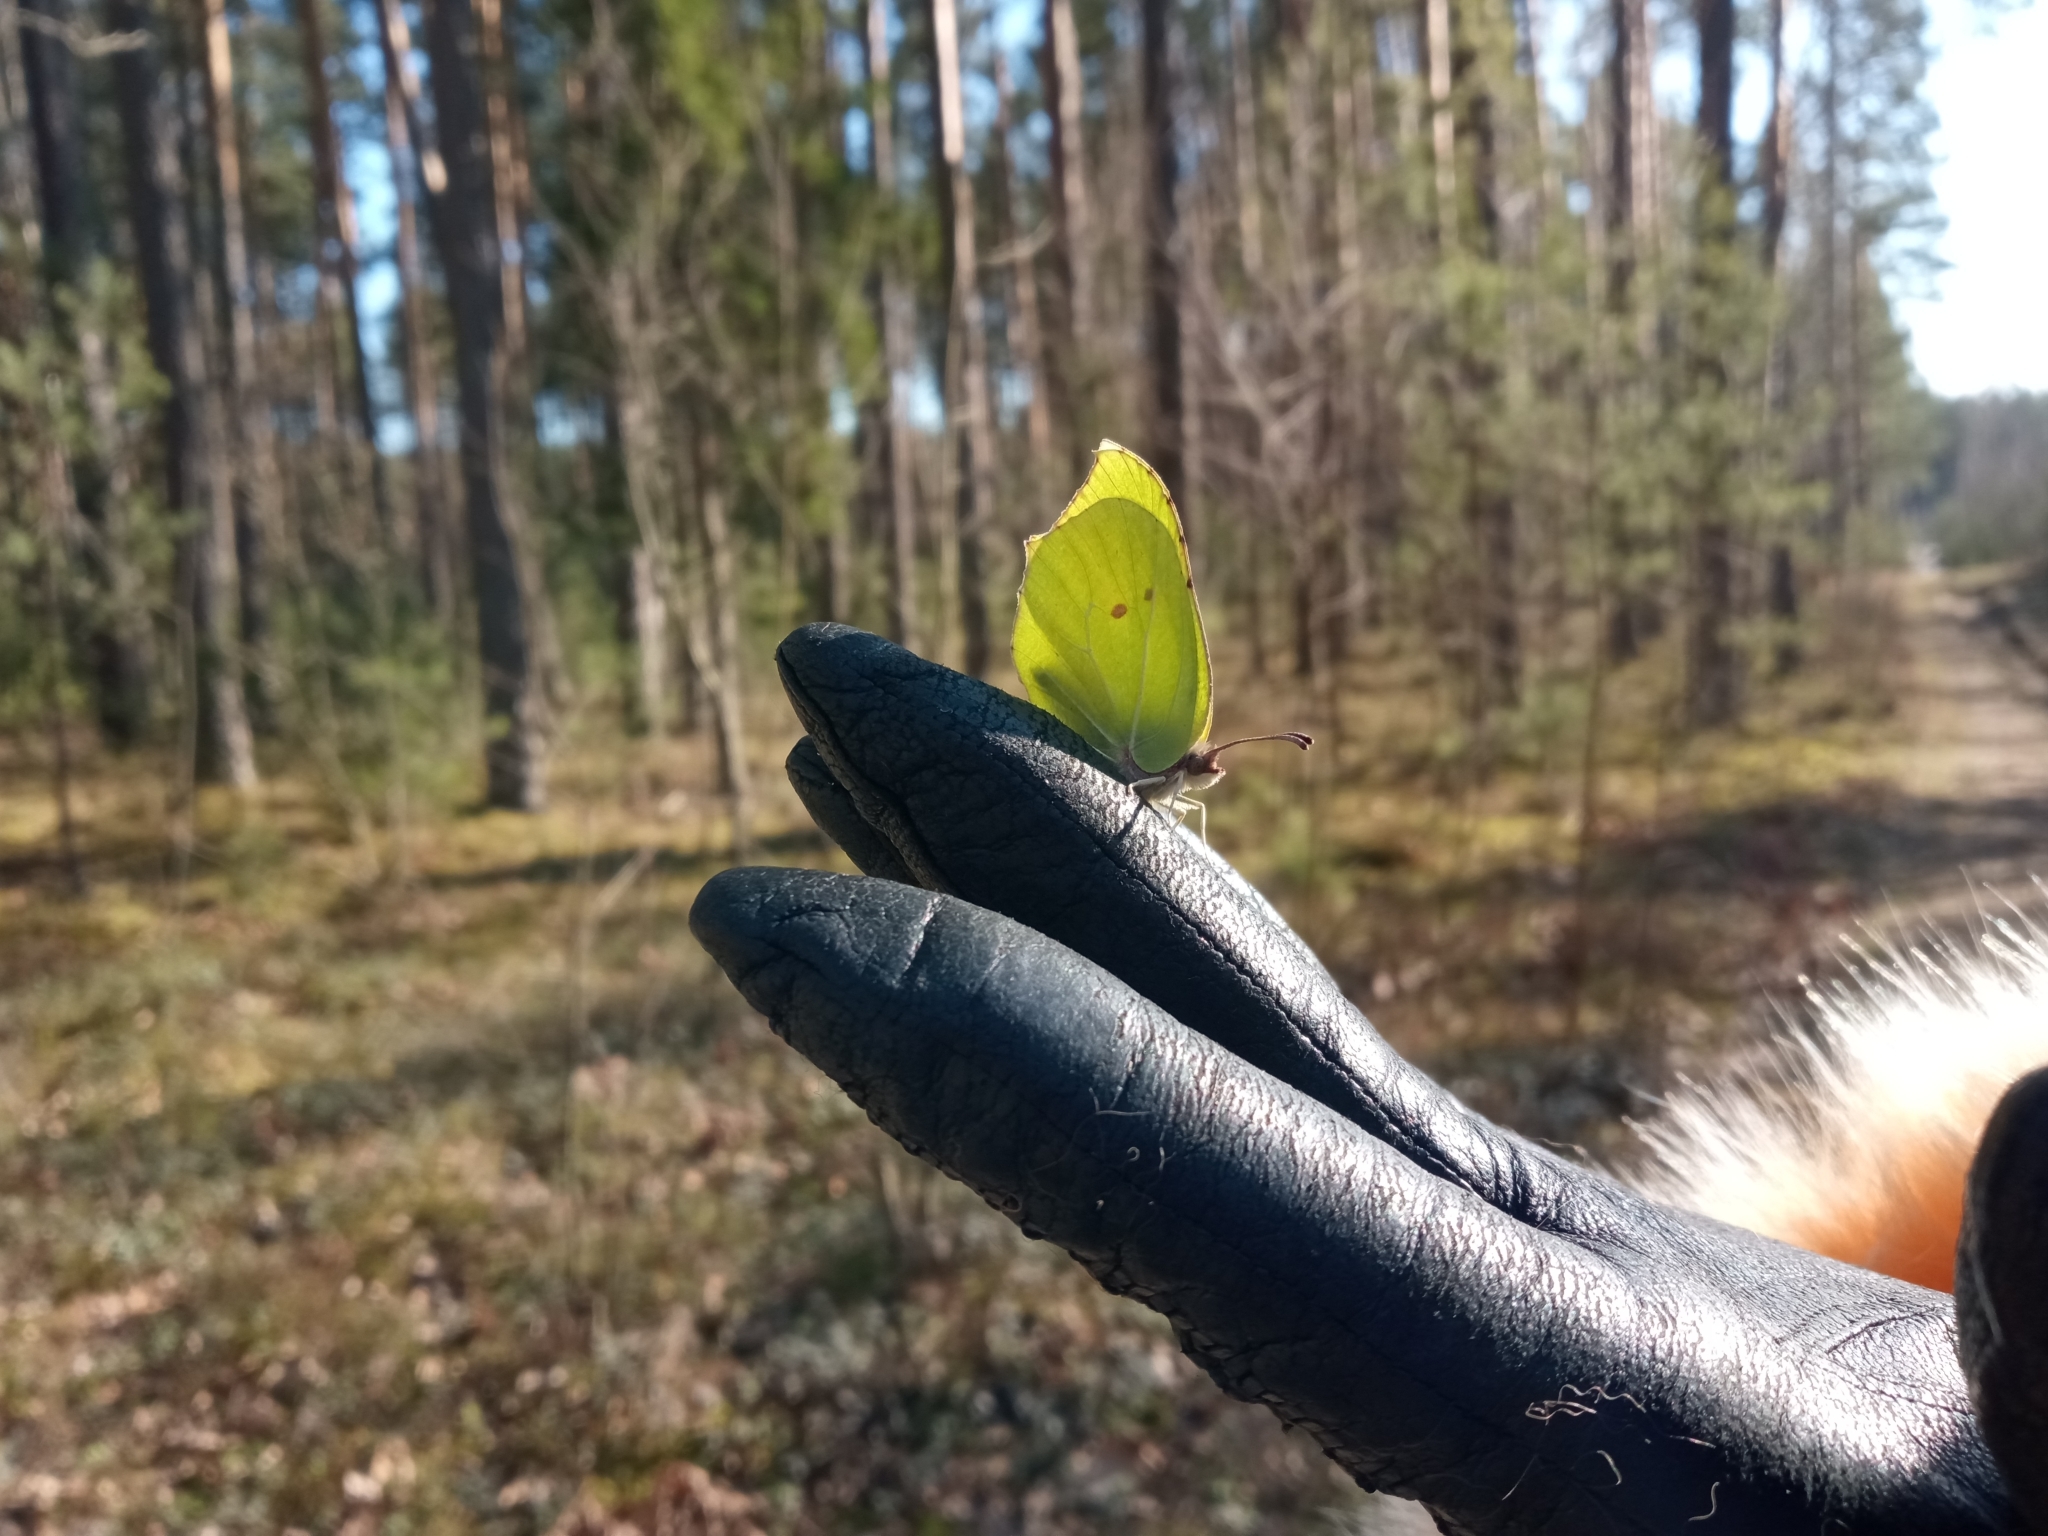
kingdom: Animalia
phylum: Arthropoda
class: Insecta
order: Lepidoptera
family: Pieridae
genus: Gonepteryx
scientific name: Gonepteryx rhamni
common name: Brimstone
